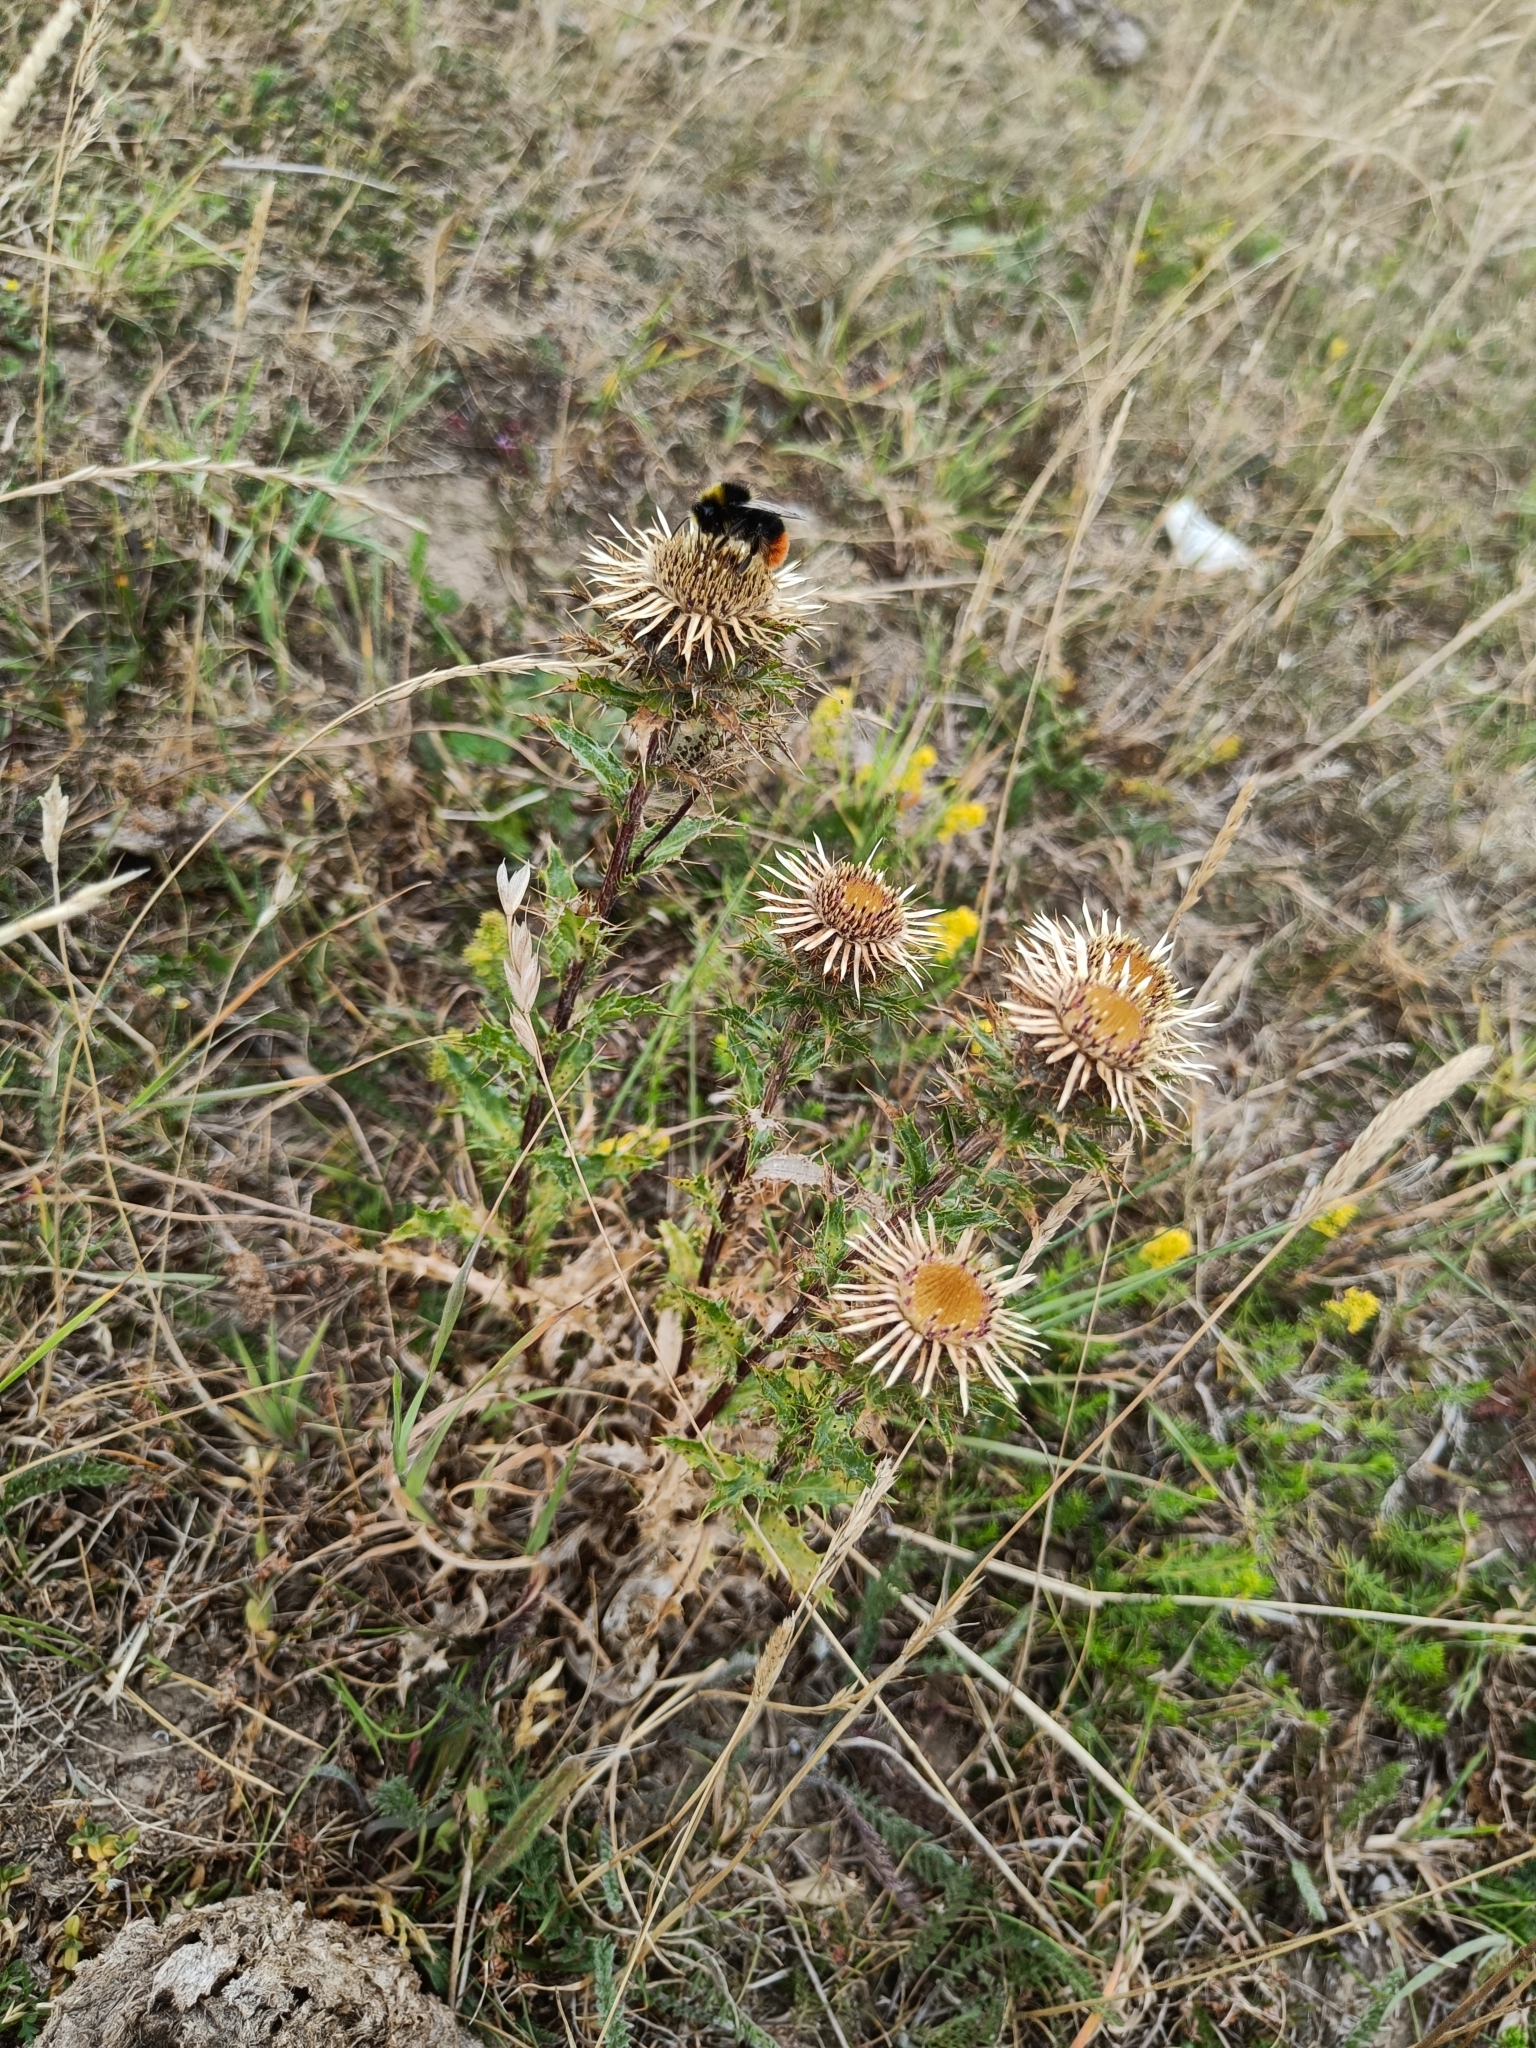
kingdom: Plantae
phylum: Tracheophyta
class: Magnoliopsida
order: Asterales
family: Asteraceae
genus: Carlina
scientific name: Carlina vulgaris
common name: Carline thistle
